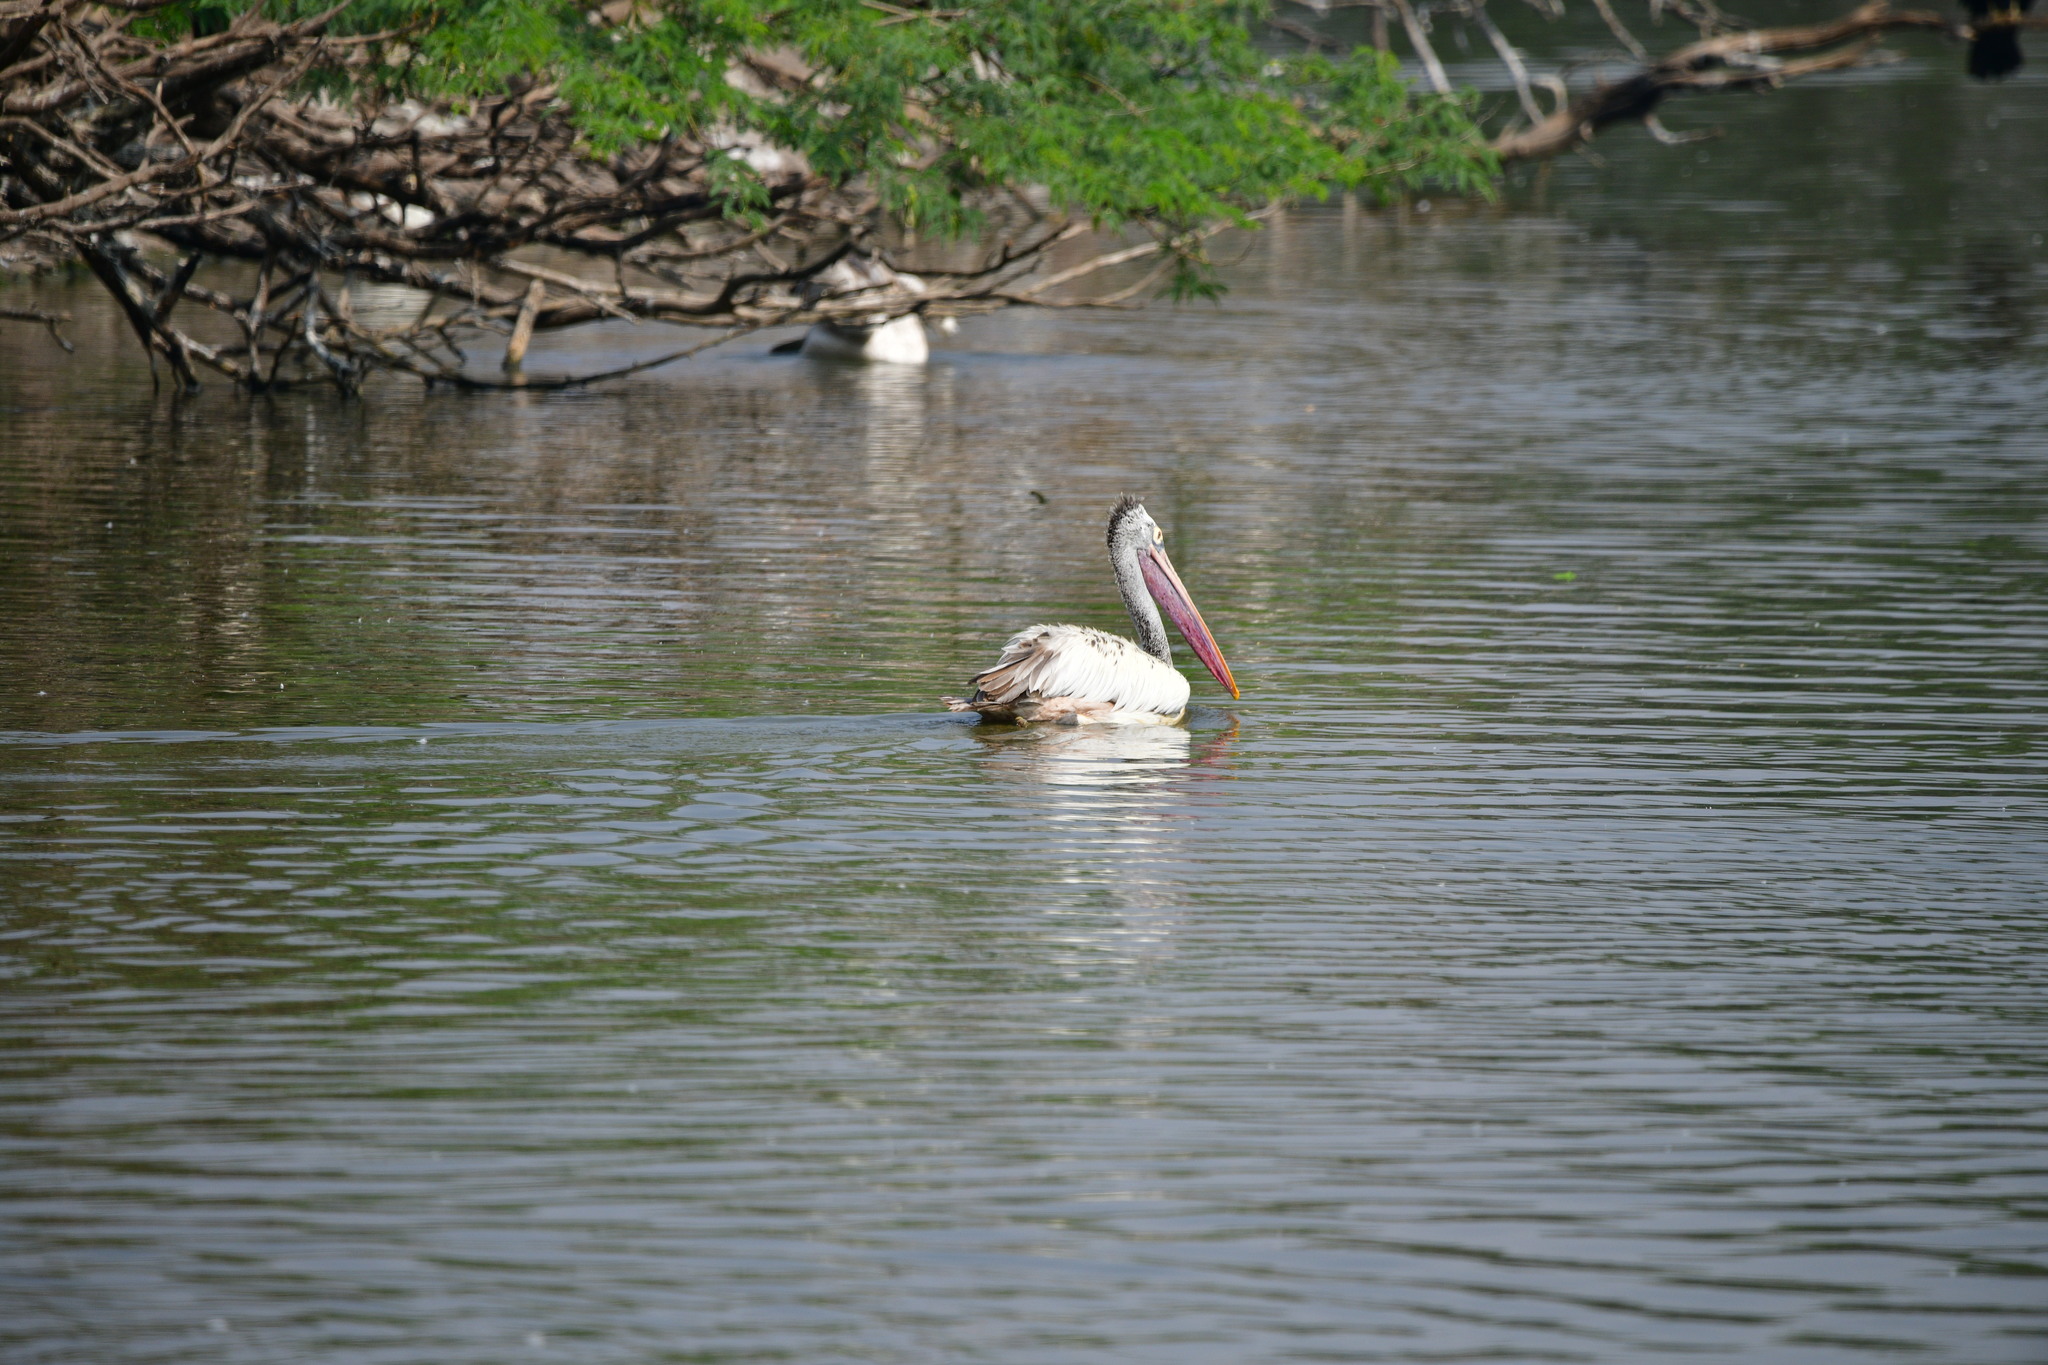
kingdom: Animalia
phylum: Chordata
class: Aves
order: Pelecaniformes
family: Pelecanidae
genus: Pelecanus
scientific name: Pelecanus philippensis
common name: Spot-billed pelican
